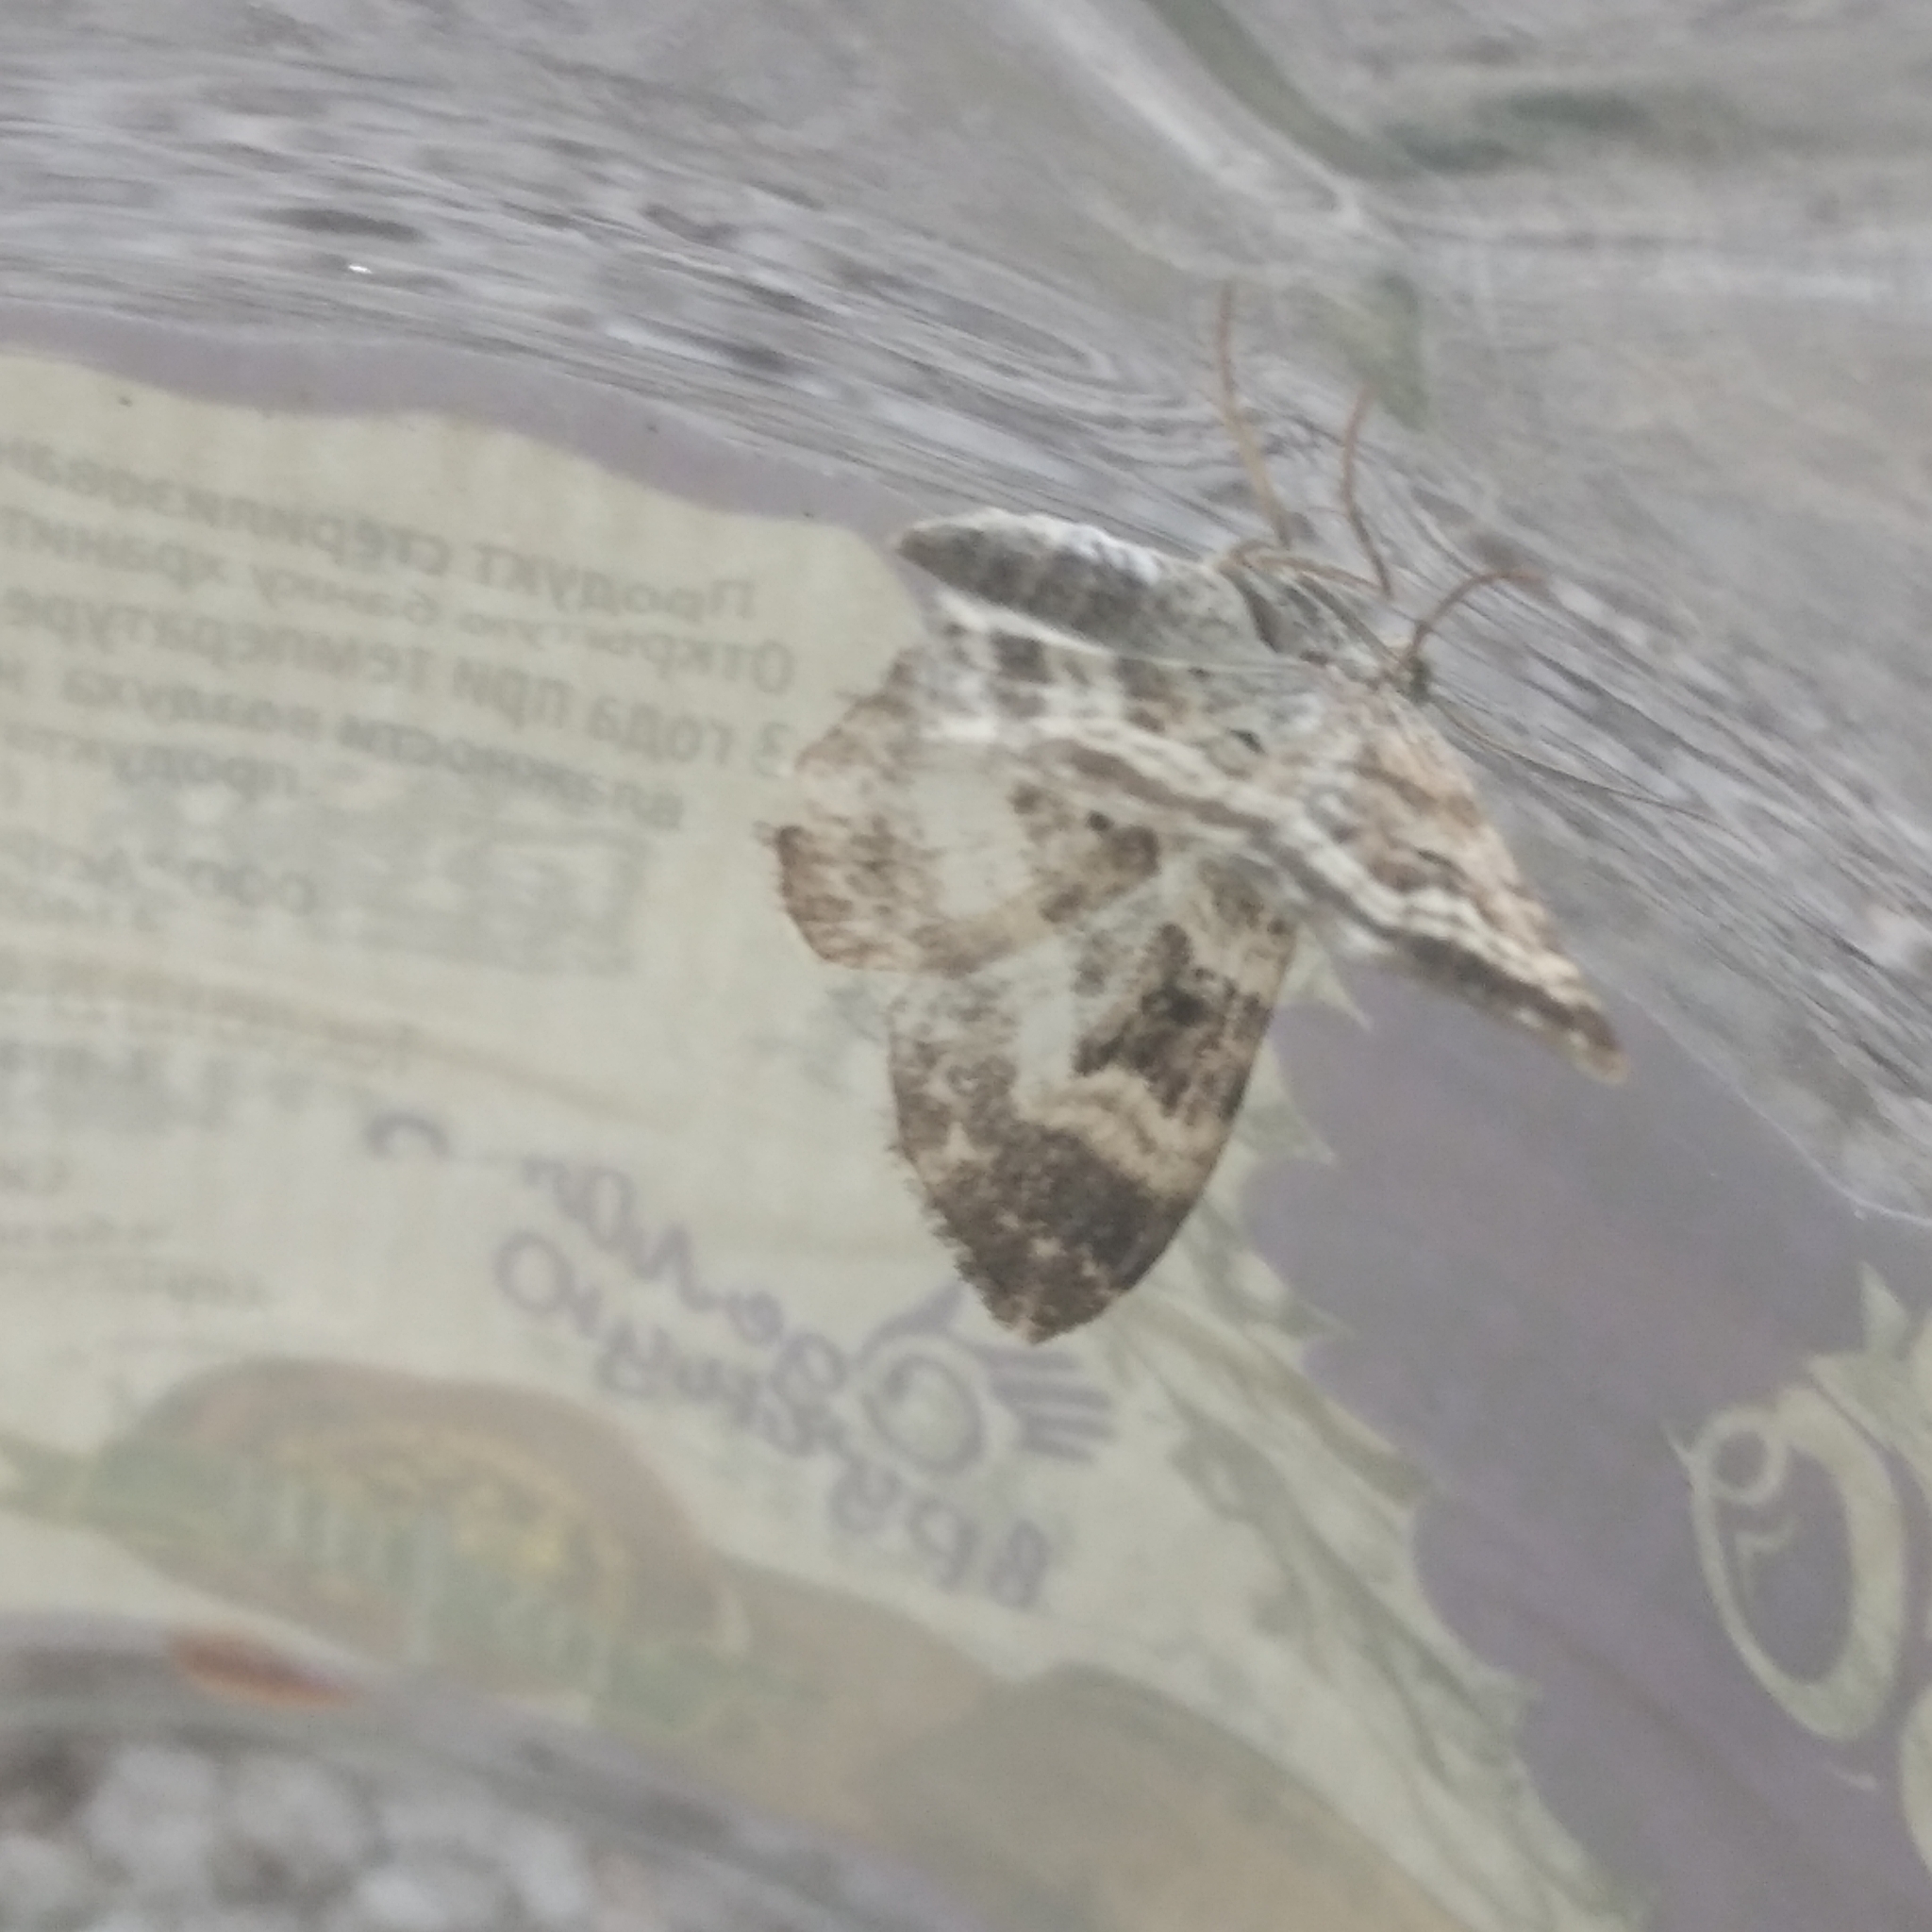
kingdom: Animalia
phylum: Arthropoda
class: Insecta
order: Lepidoptera
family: Geometridae
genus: Epirrhoe
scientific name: Epirrhoe alternata
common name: Common carpet
